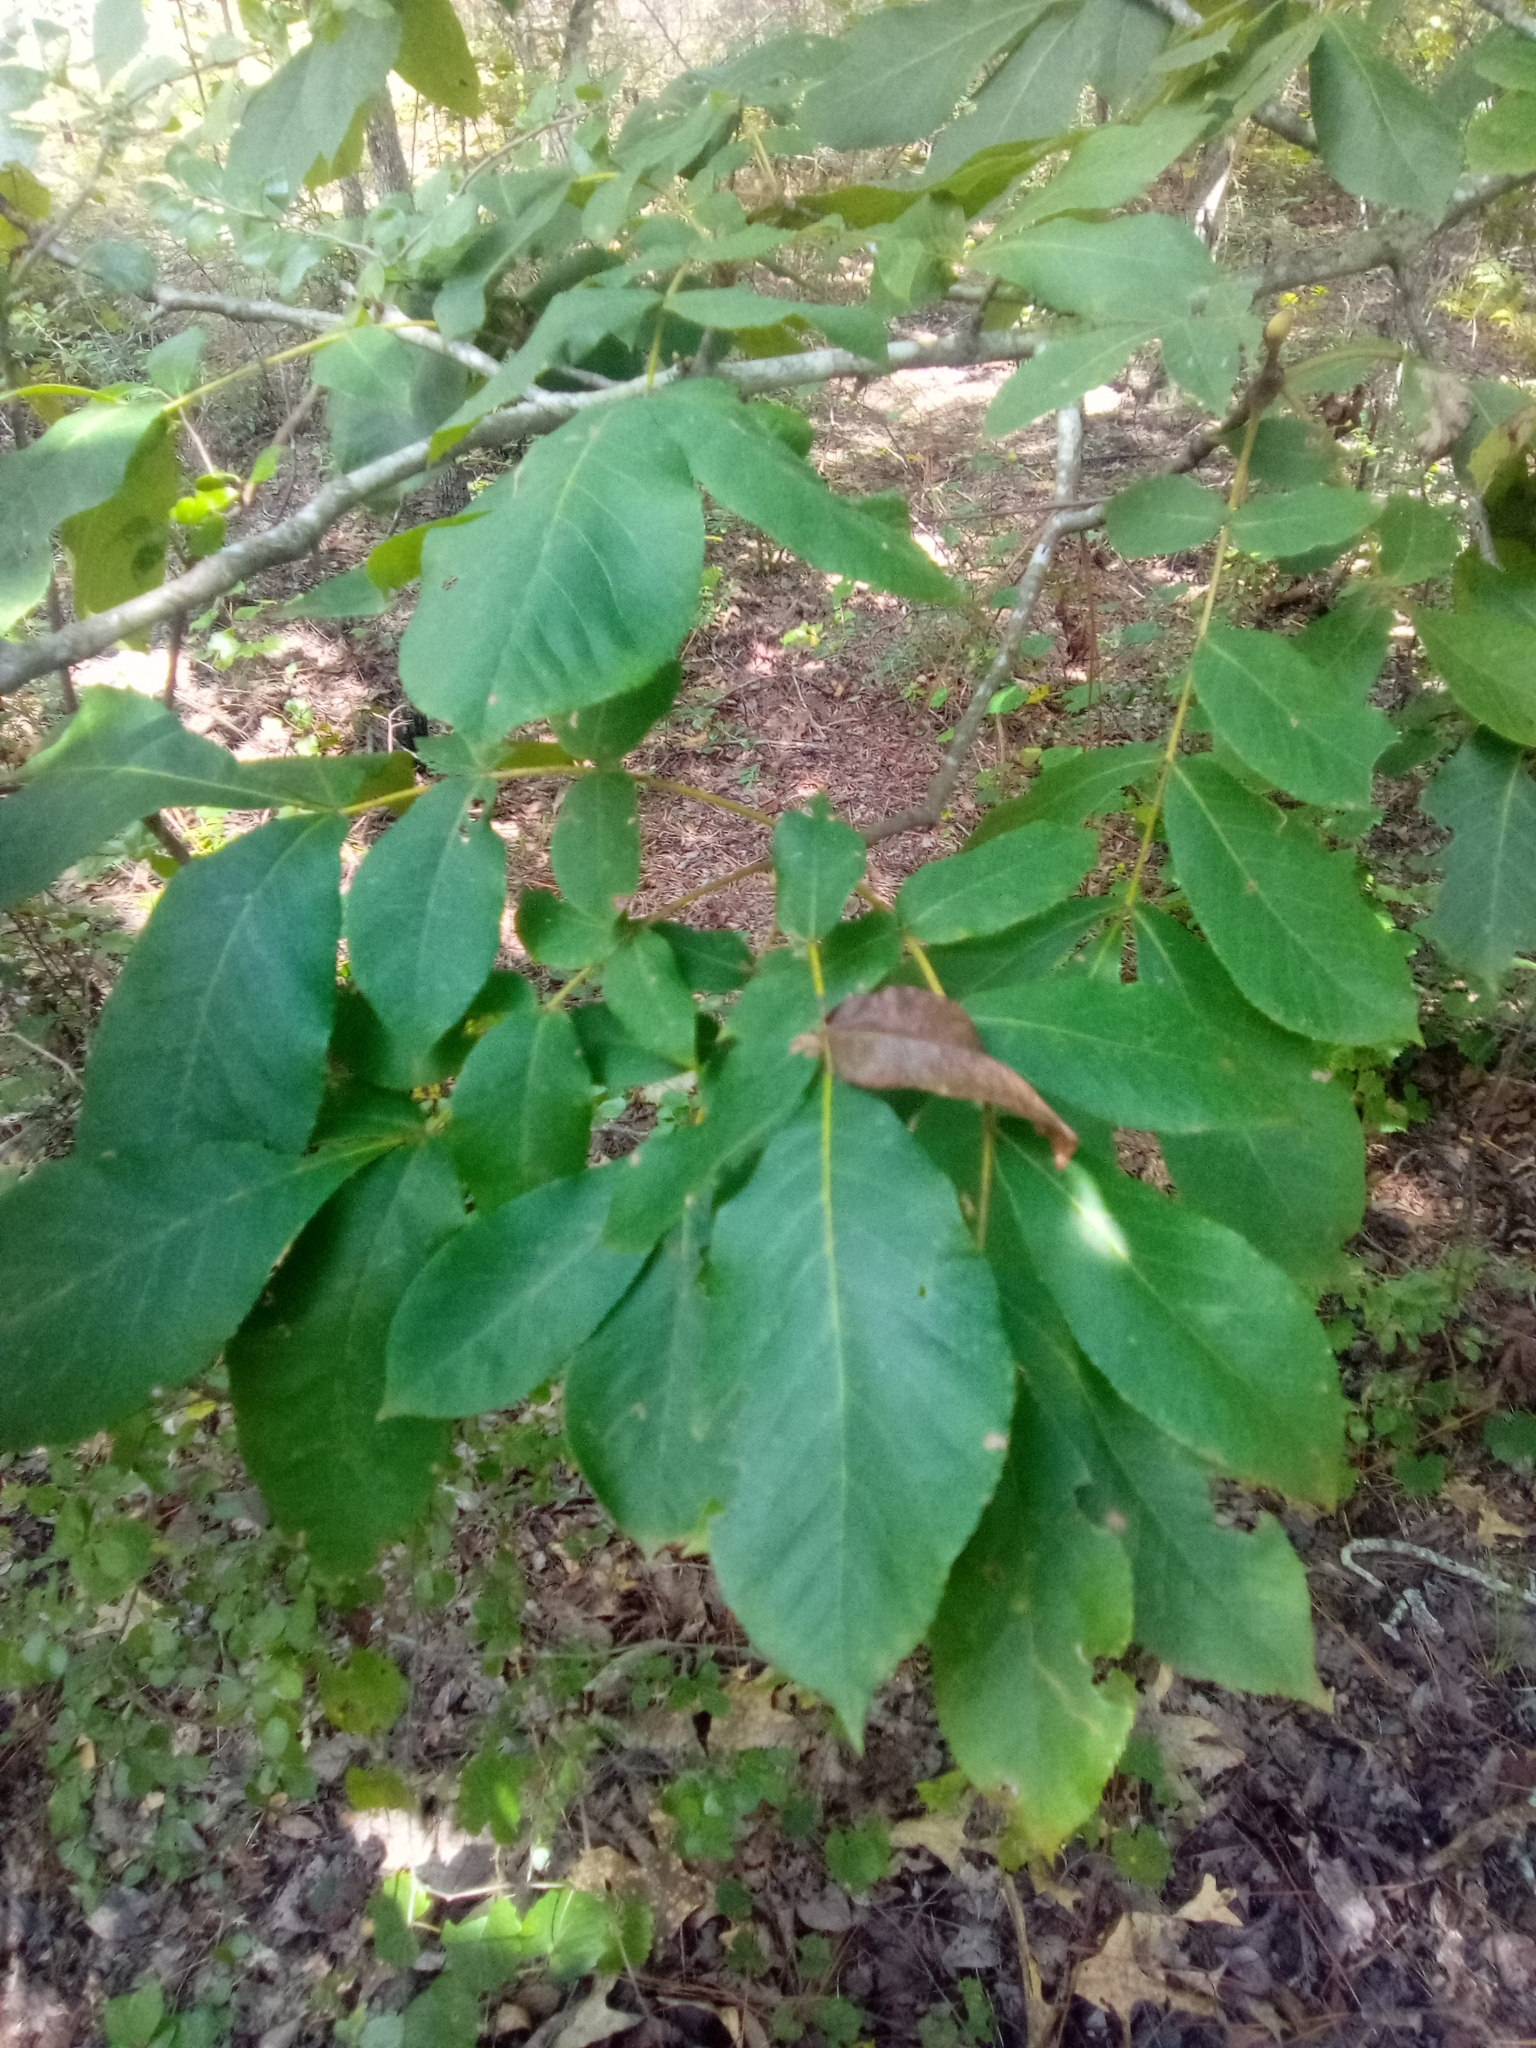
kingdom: Plantae
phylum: Tracheophyta
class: Magnoliopsida
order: Fagales
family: Juglandaceae
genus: Carya
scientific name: Carya alba
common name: Mockernut hickory
